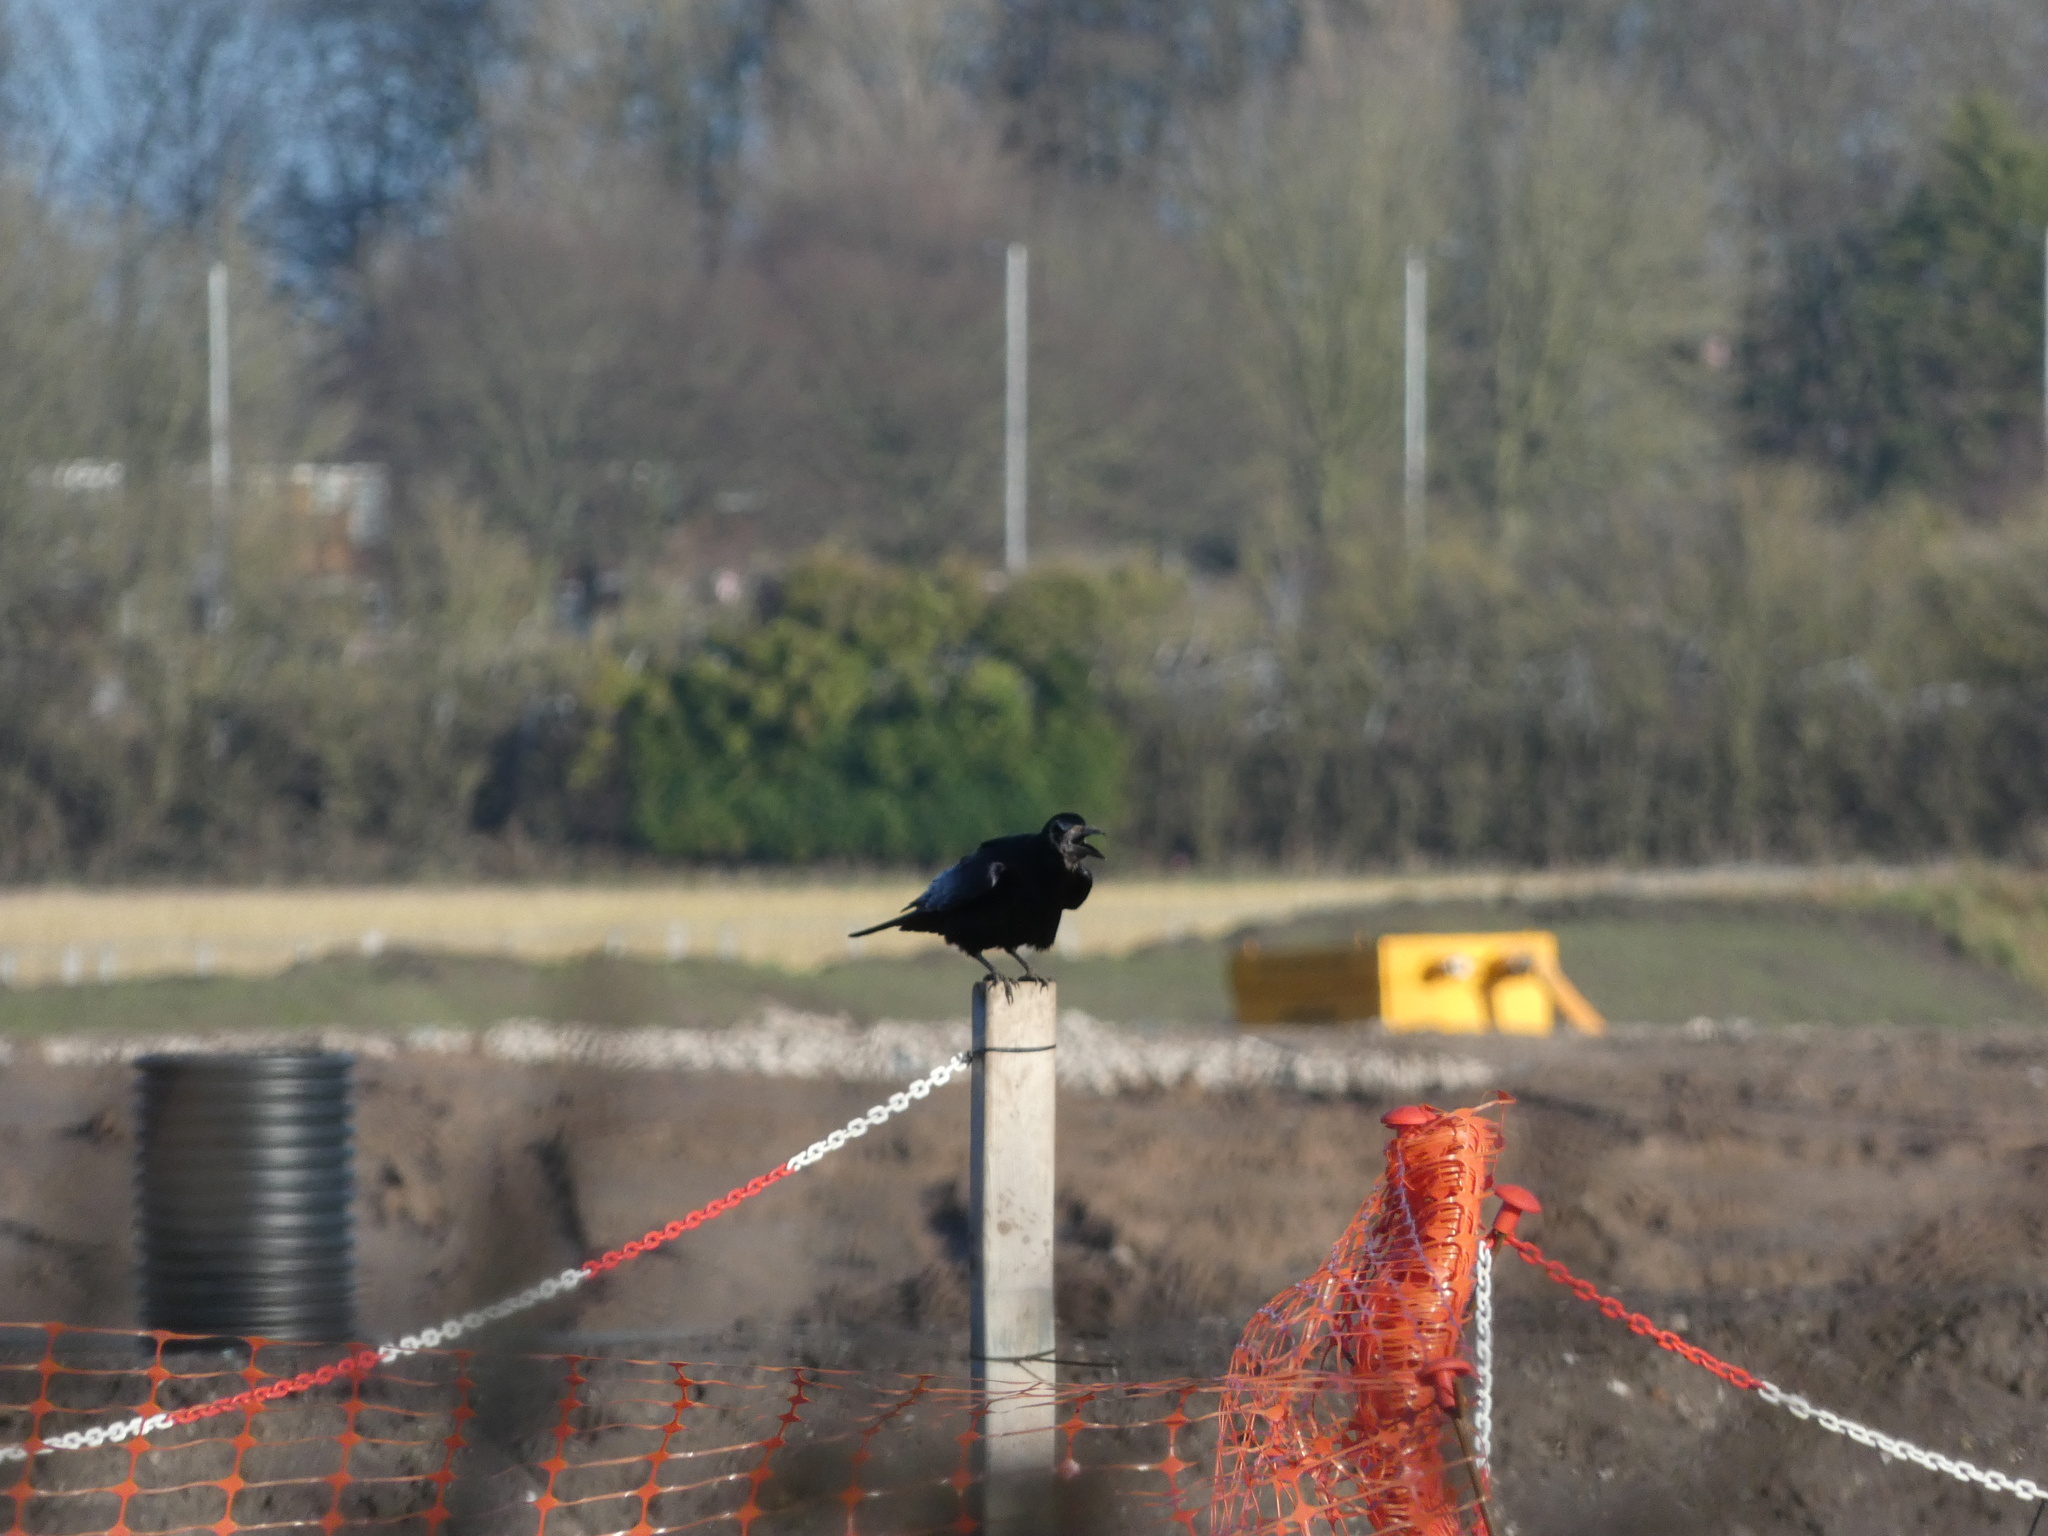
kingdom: Animalia
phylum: Chordata
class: Aves
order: Passeriformes
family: Corvidae
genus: Corvus
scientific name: Corvus frugilegus
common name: Rook
